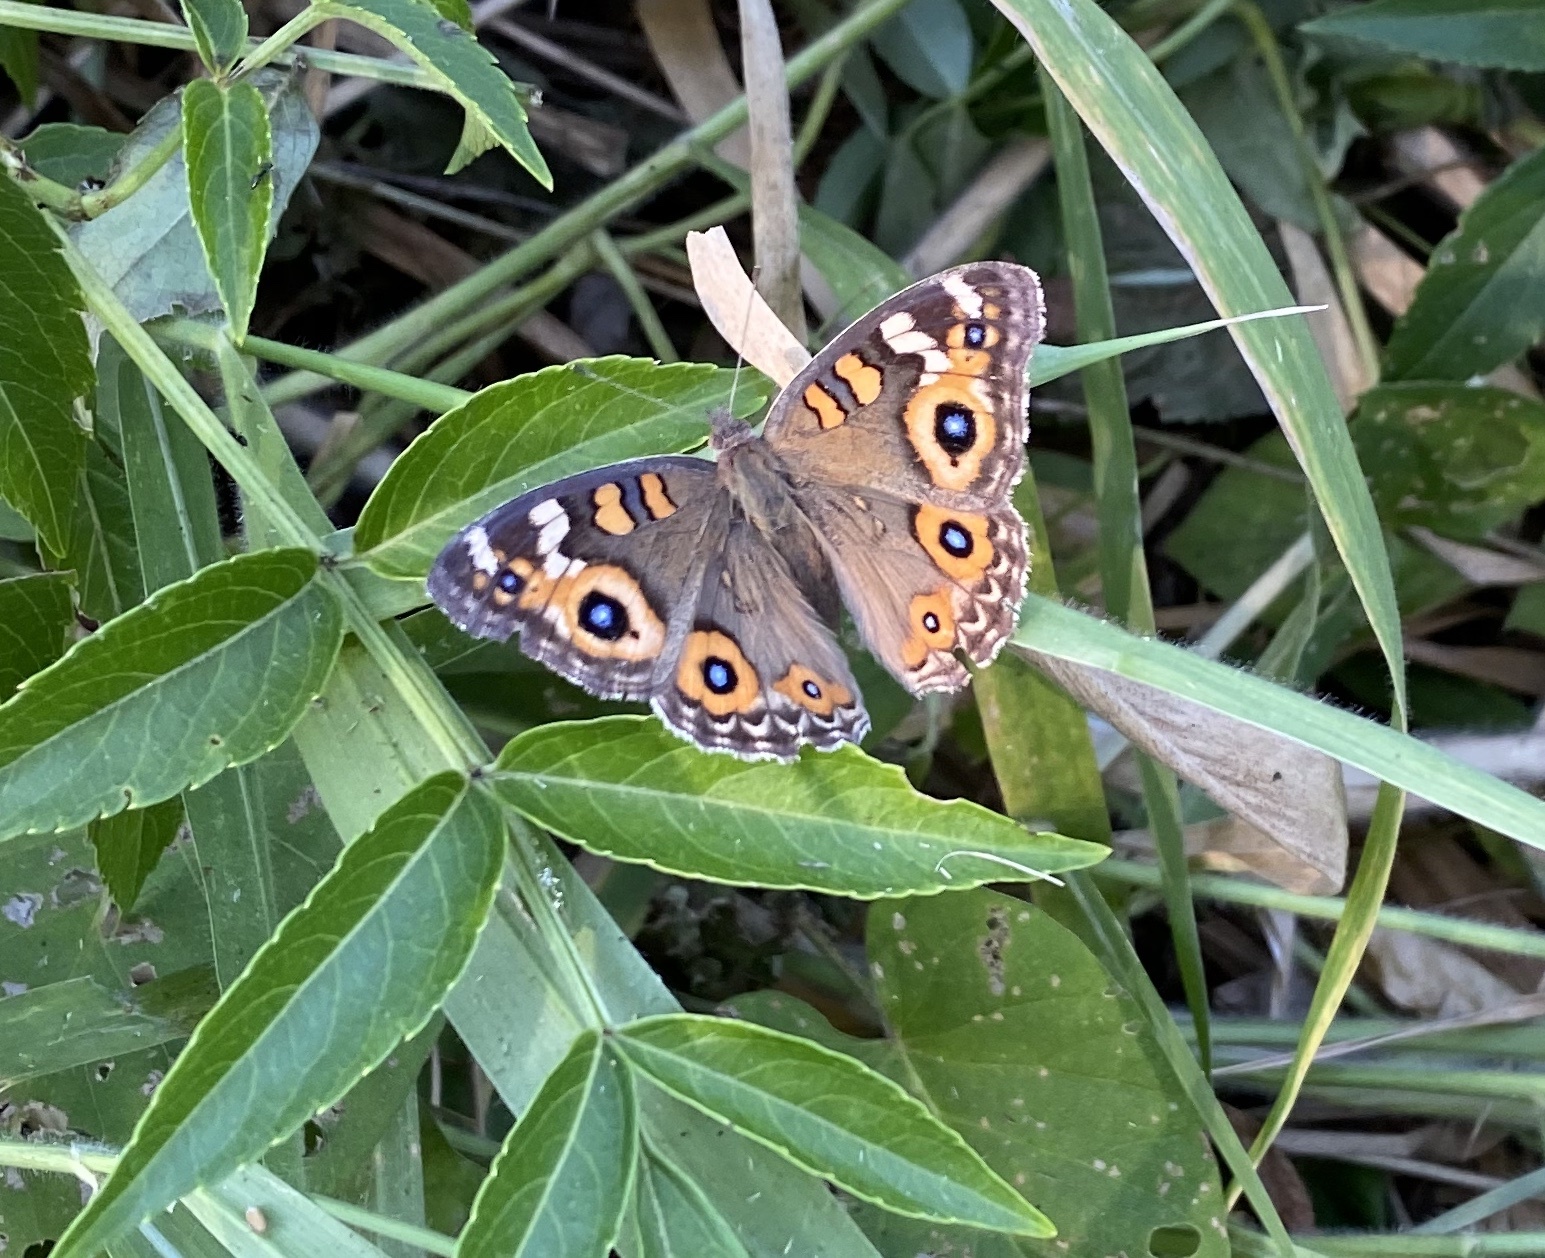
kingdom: Animalia
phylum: Arthropoda
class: Insecta
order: Lepidoptera
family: Nymphalidae
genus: Junonia
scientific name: Junonia villida
